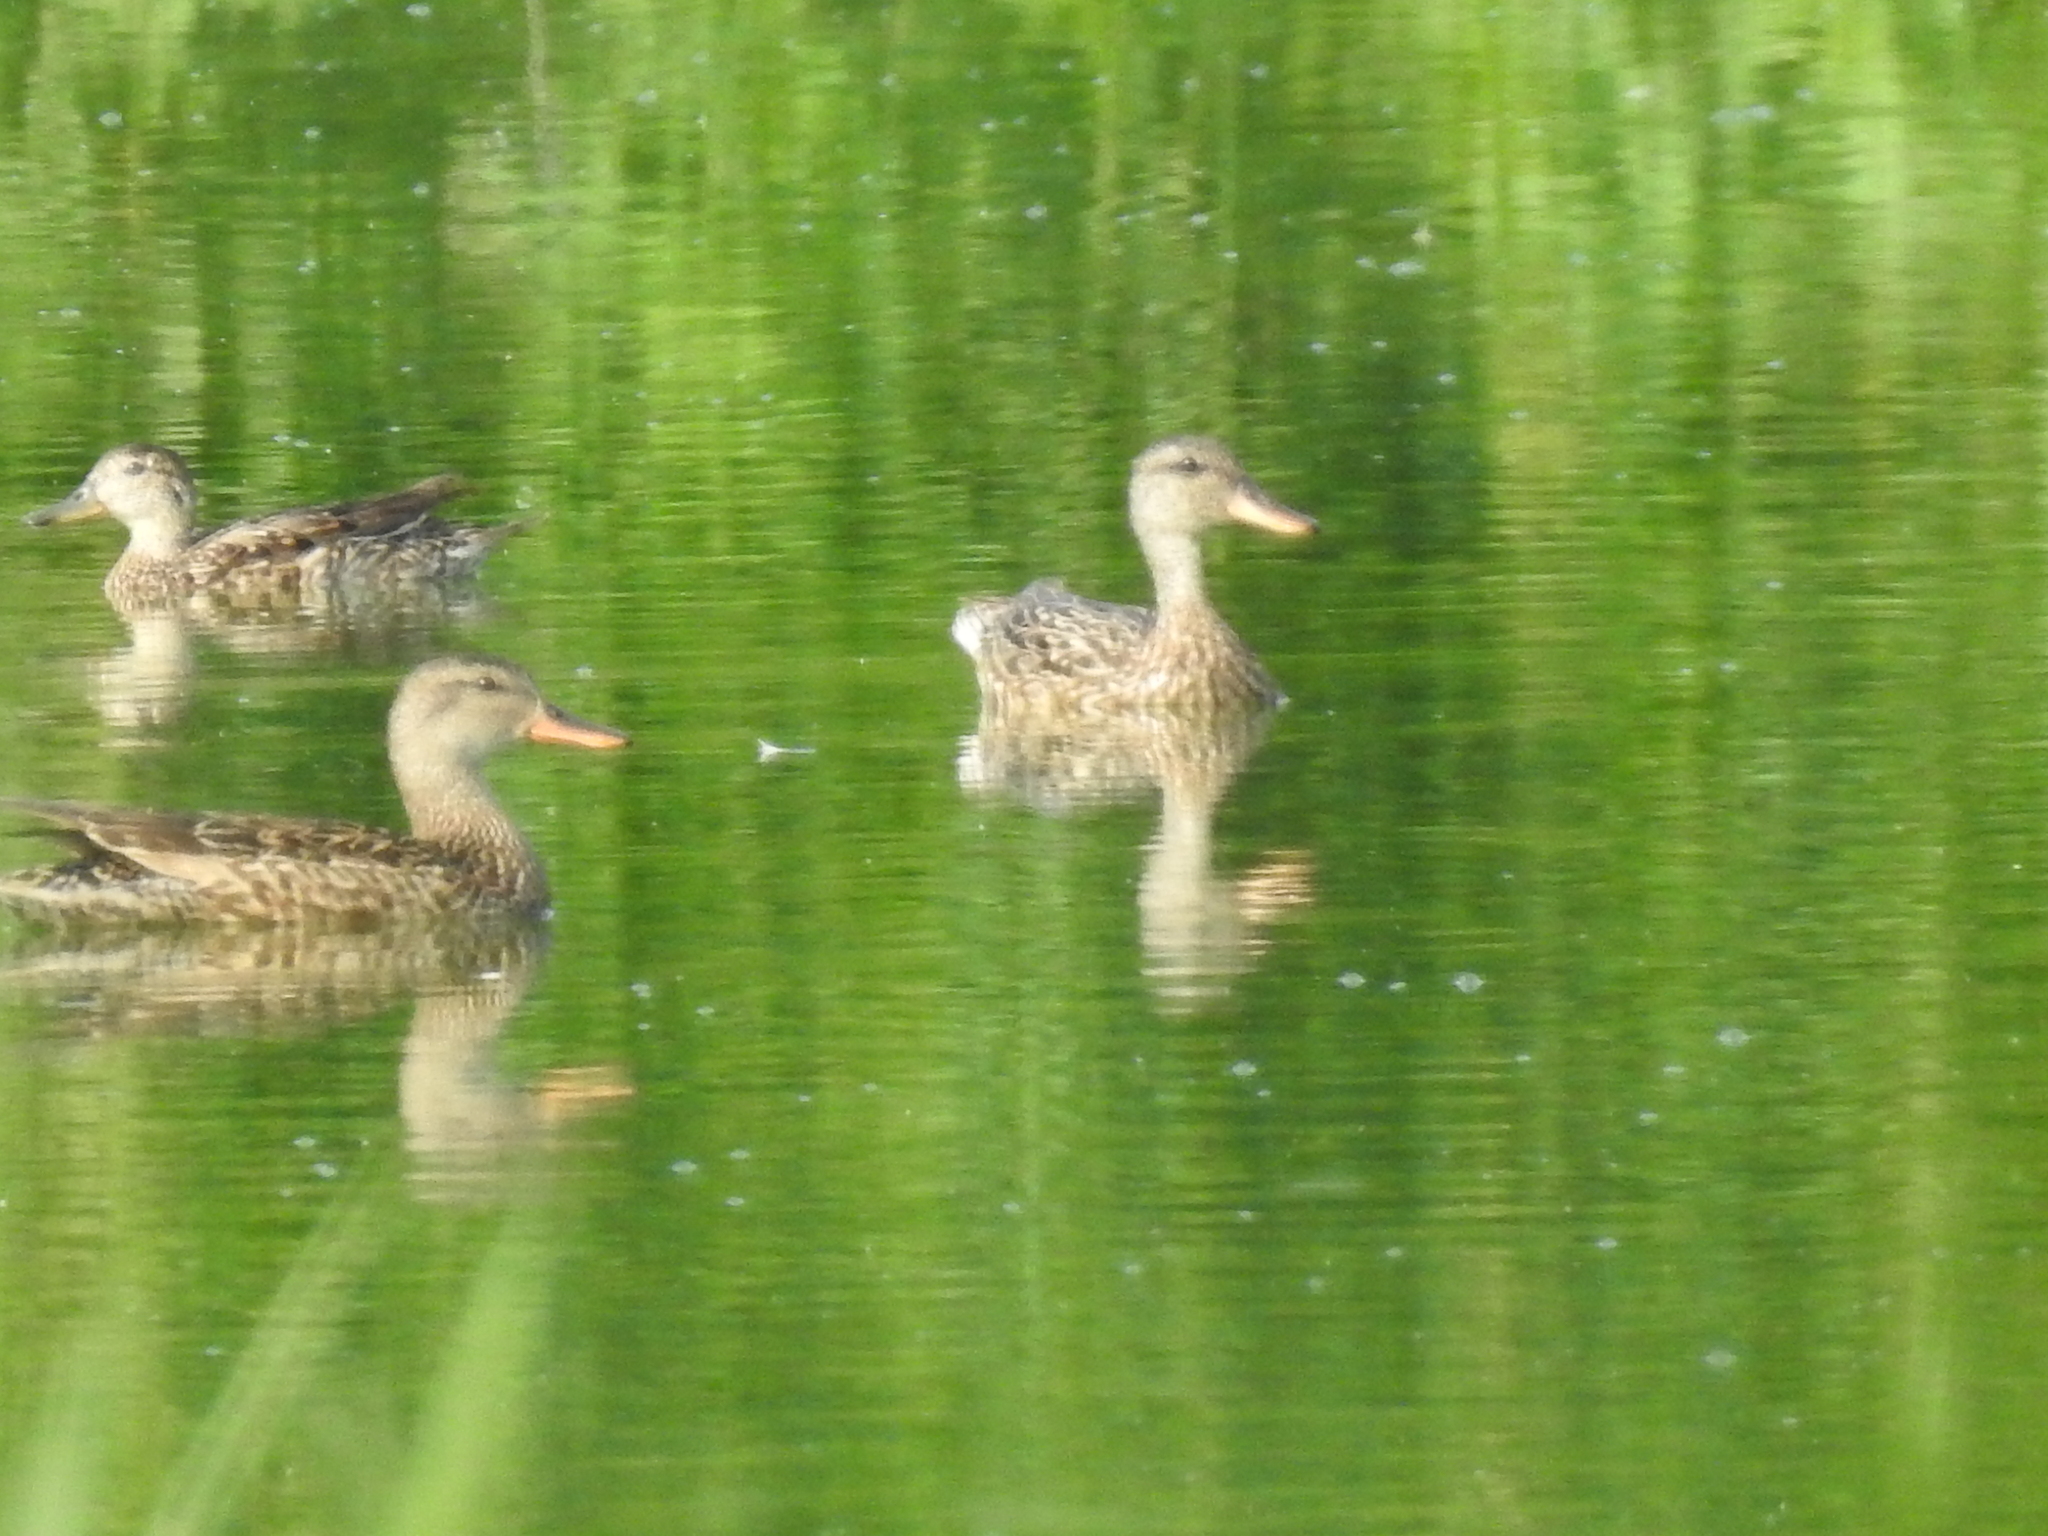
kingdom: Animalia
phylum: Chordata
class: Aves
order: Anseriformes
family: Anatidae
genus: Mareca
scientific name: Mareca strepera
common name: Gadwall
